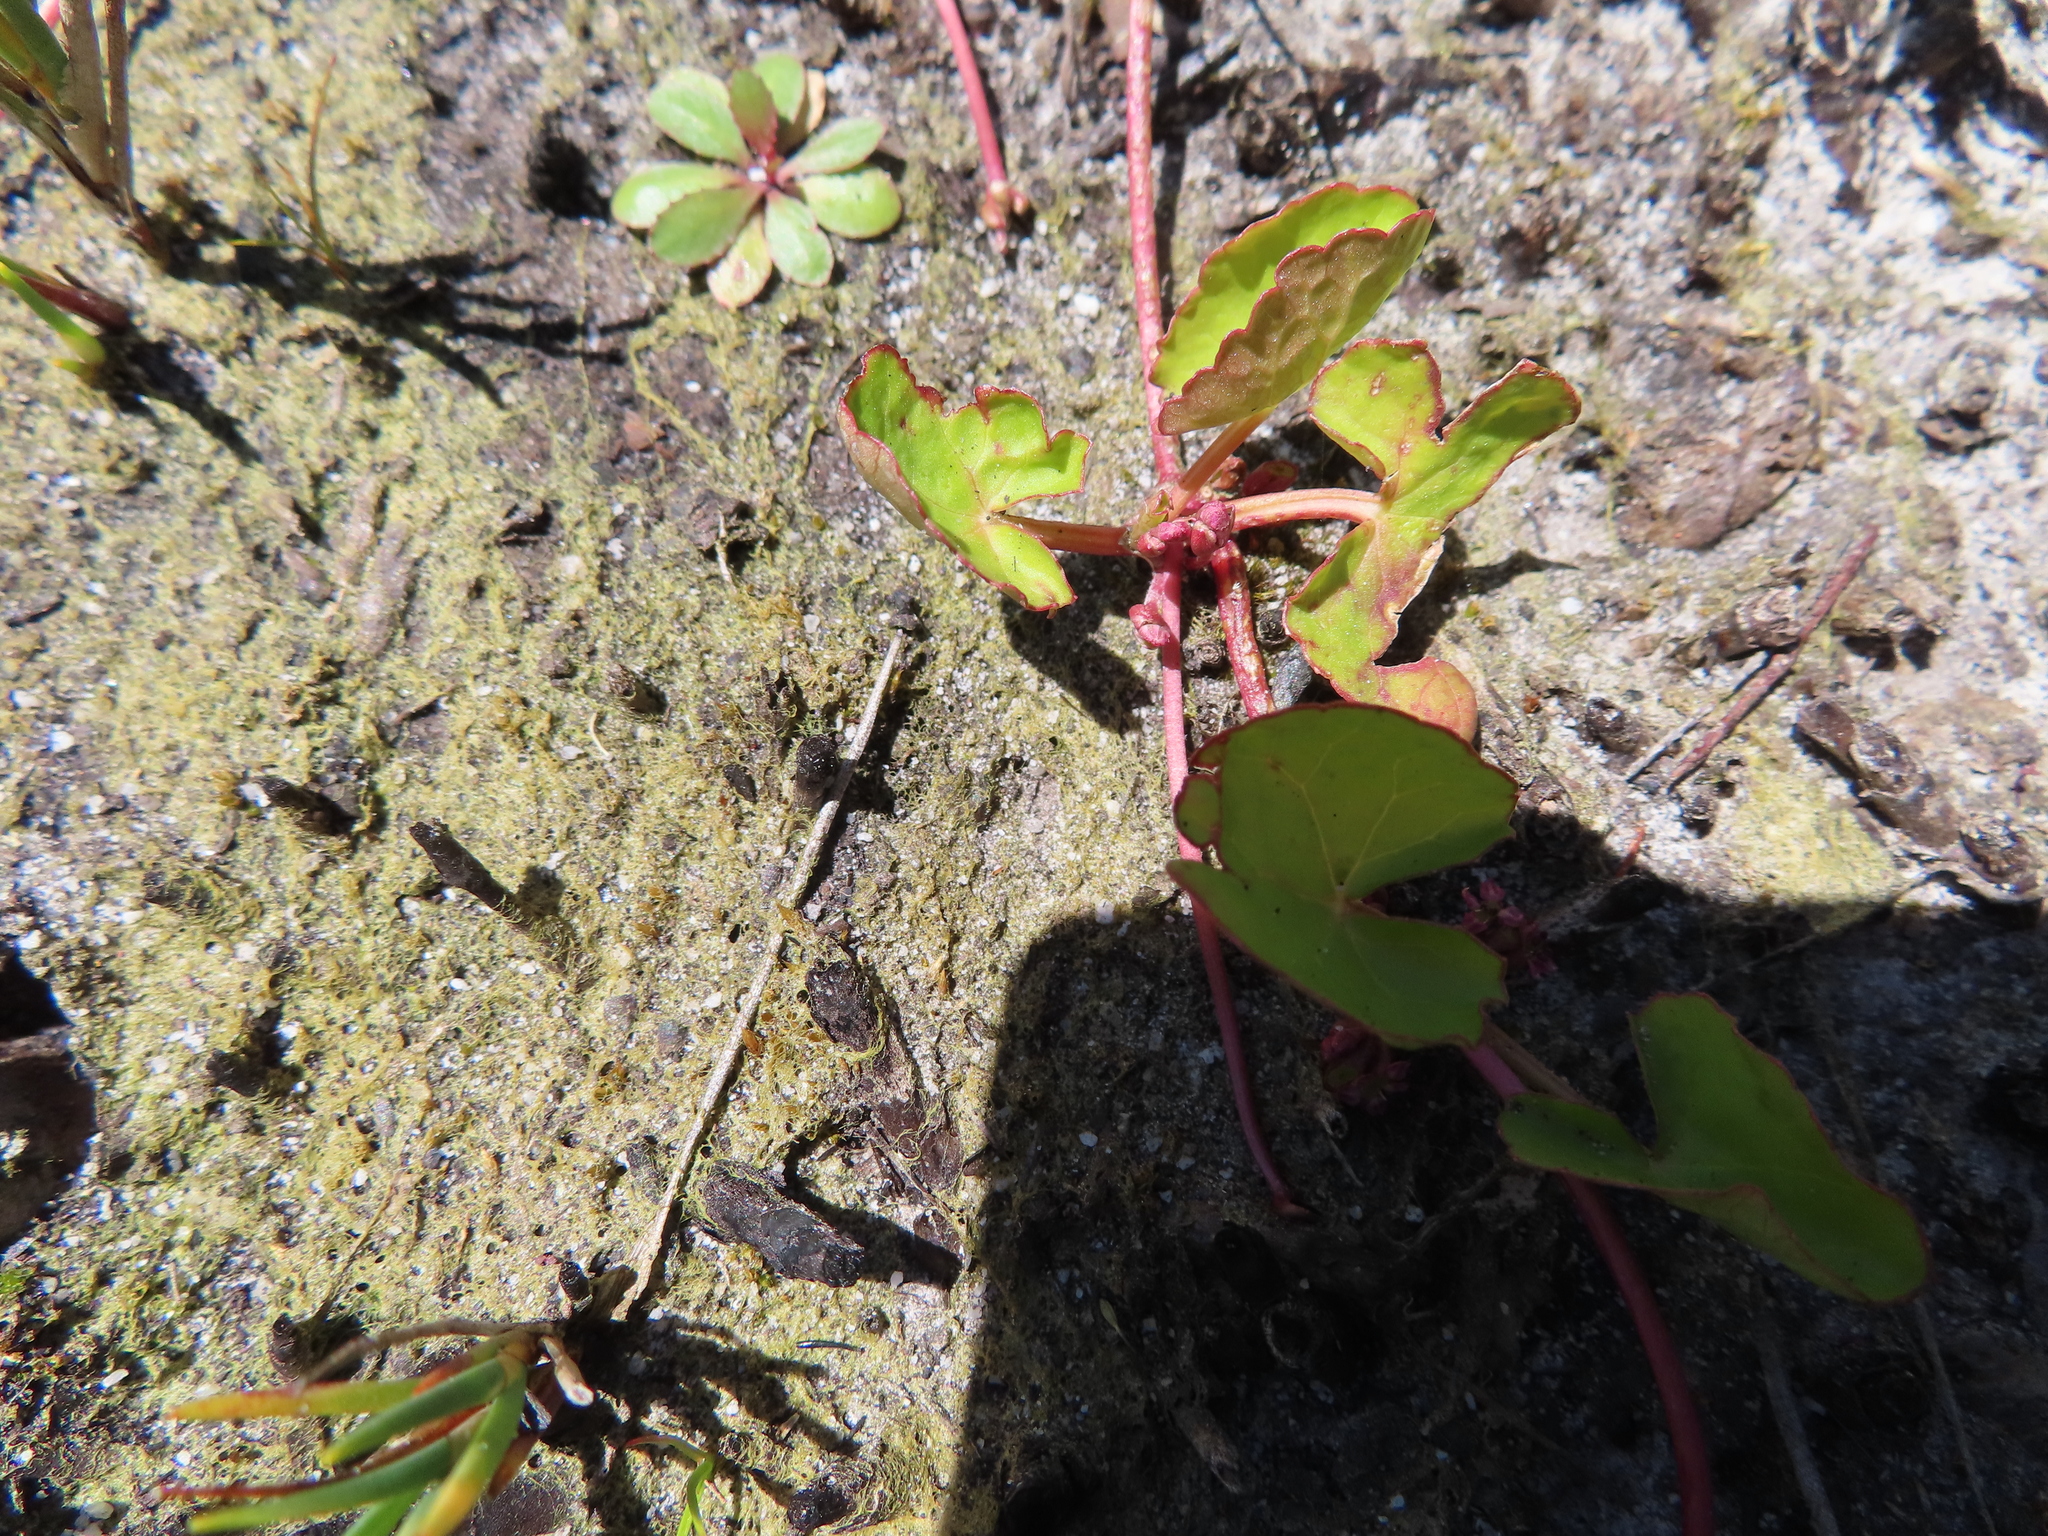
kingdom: Plantae
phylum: Tracheophyta
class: Magnoliopsida
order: Apiales
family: Apiaceae
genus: Centella
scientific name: Centella asiatica
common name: Spadeleaf
